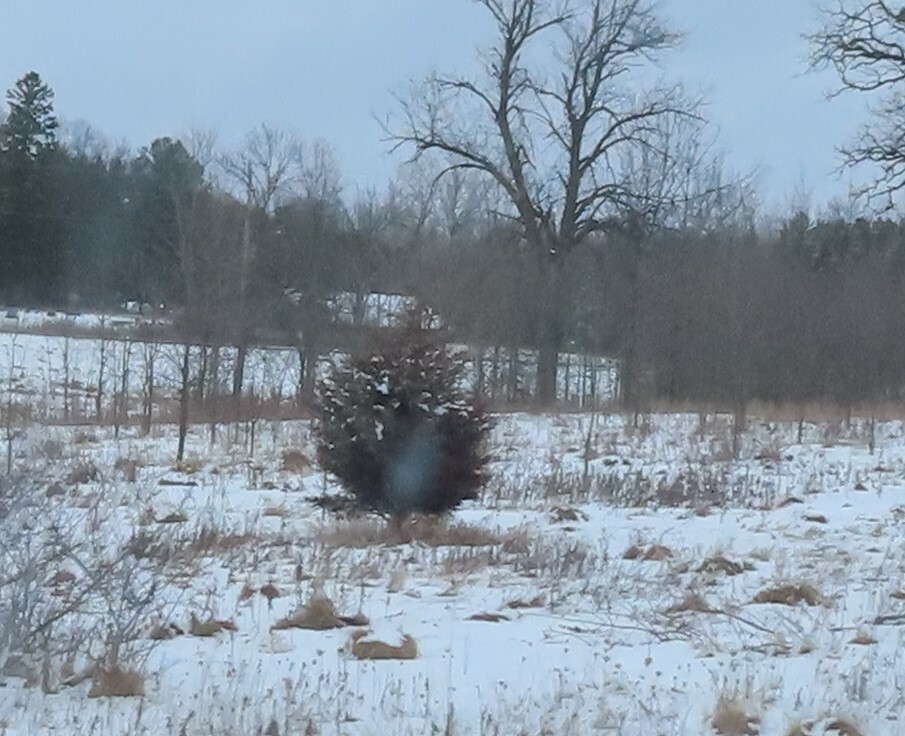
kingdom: Plantae
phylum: Tracheophyta
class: Pinopsida
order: Pinales
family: Cupressaceae
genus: Juniperus
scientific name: Juniperus virginiana
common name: Red juniper
